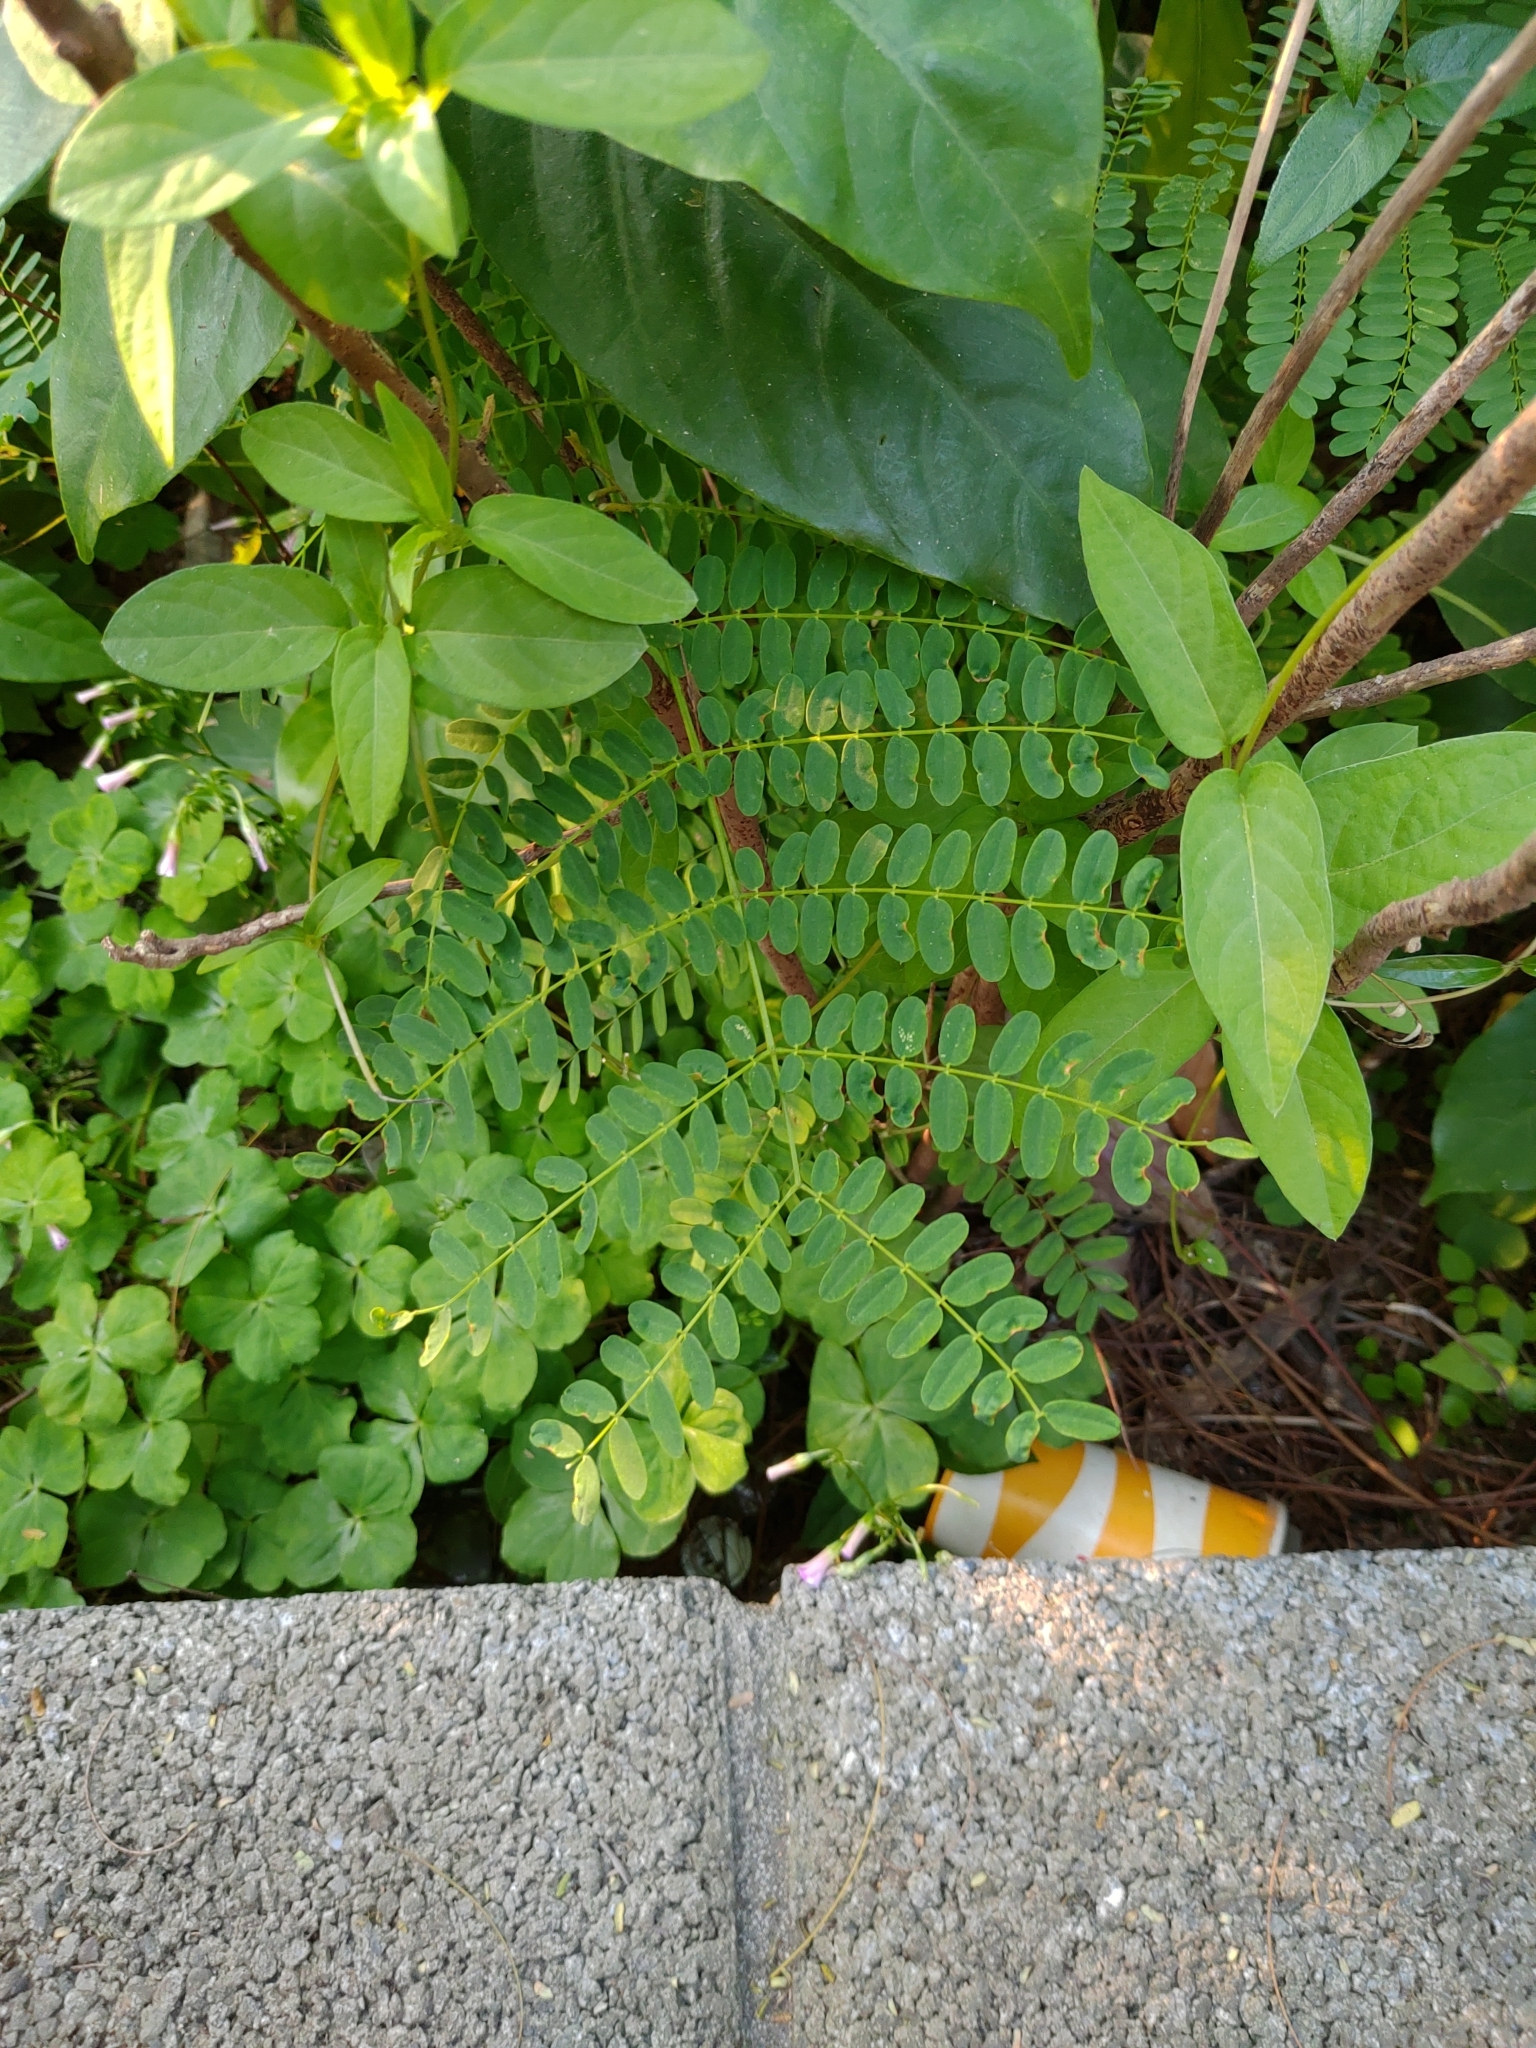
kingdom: Plantae
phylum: Tracheophyta
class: Magnoliopsida
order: Fabales
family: Fabaceae
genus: Leucaena
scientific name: Leucaena leucocephala
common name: White leadtree
